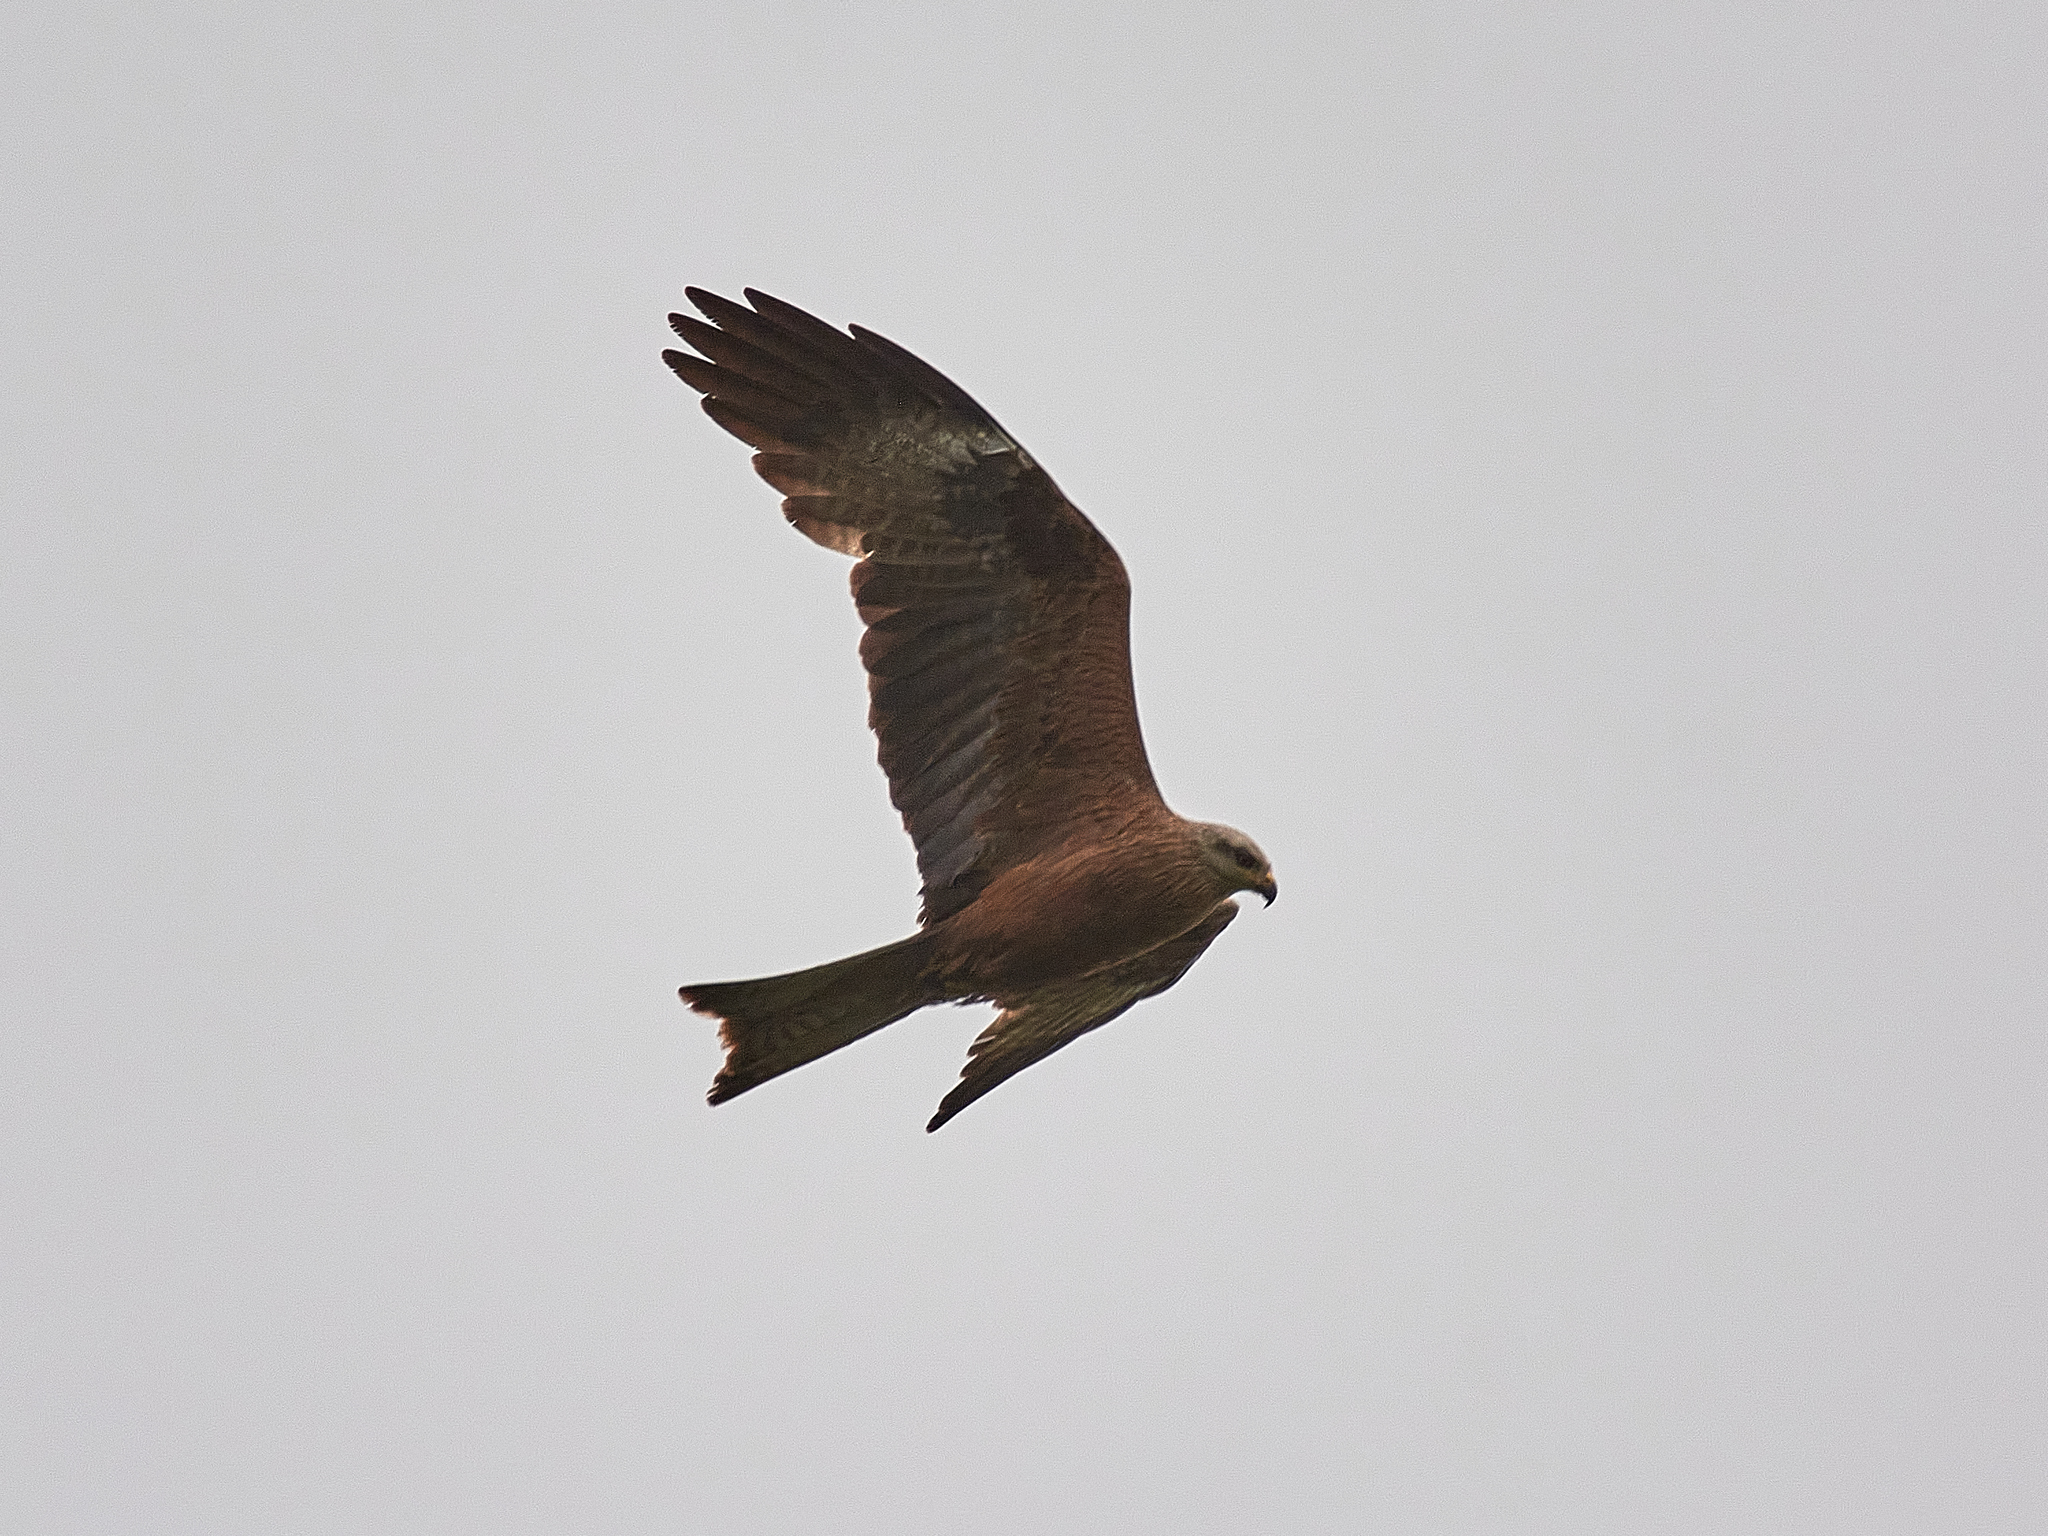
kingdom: Animalia
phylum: Chordata
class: Aves
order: Accipitriformes
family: Accipitridae
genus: Milvus
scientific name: Milvus migrans
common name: Black kite
